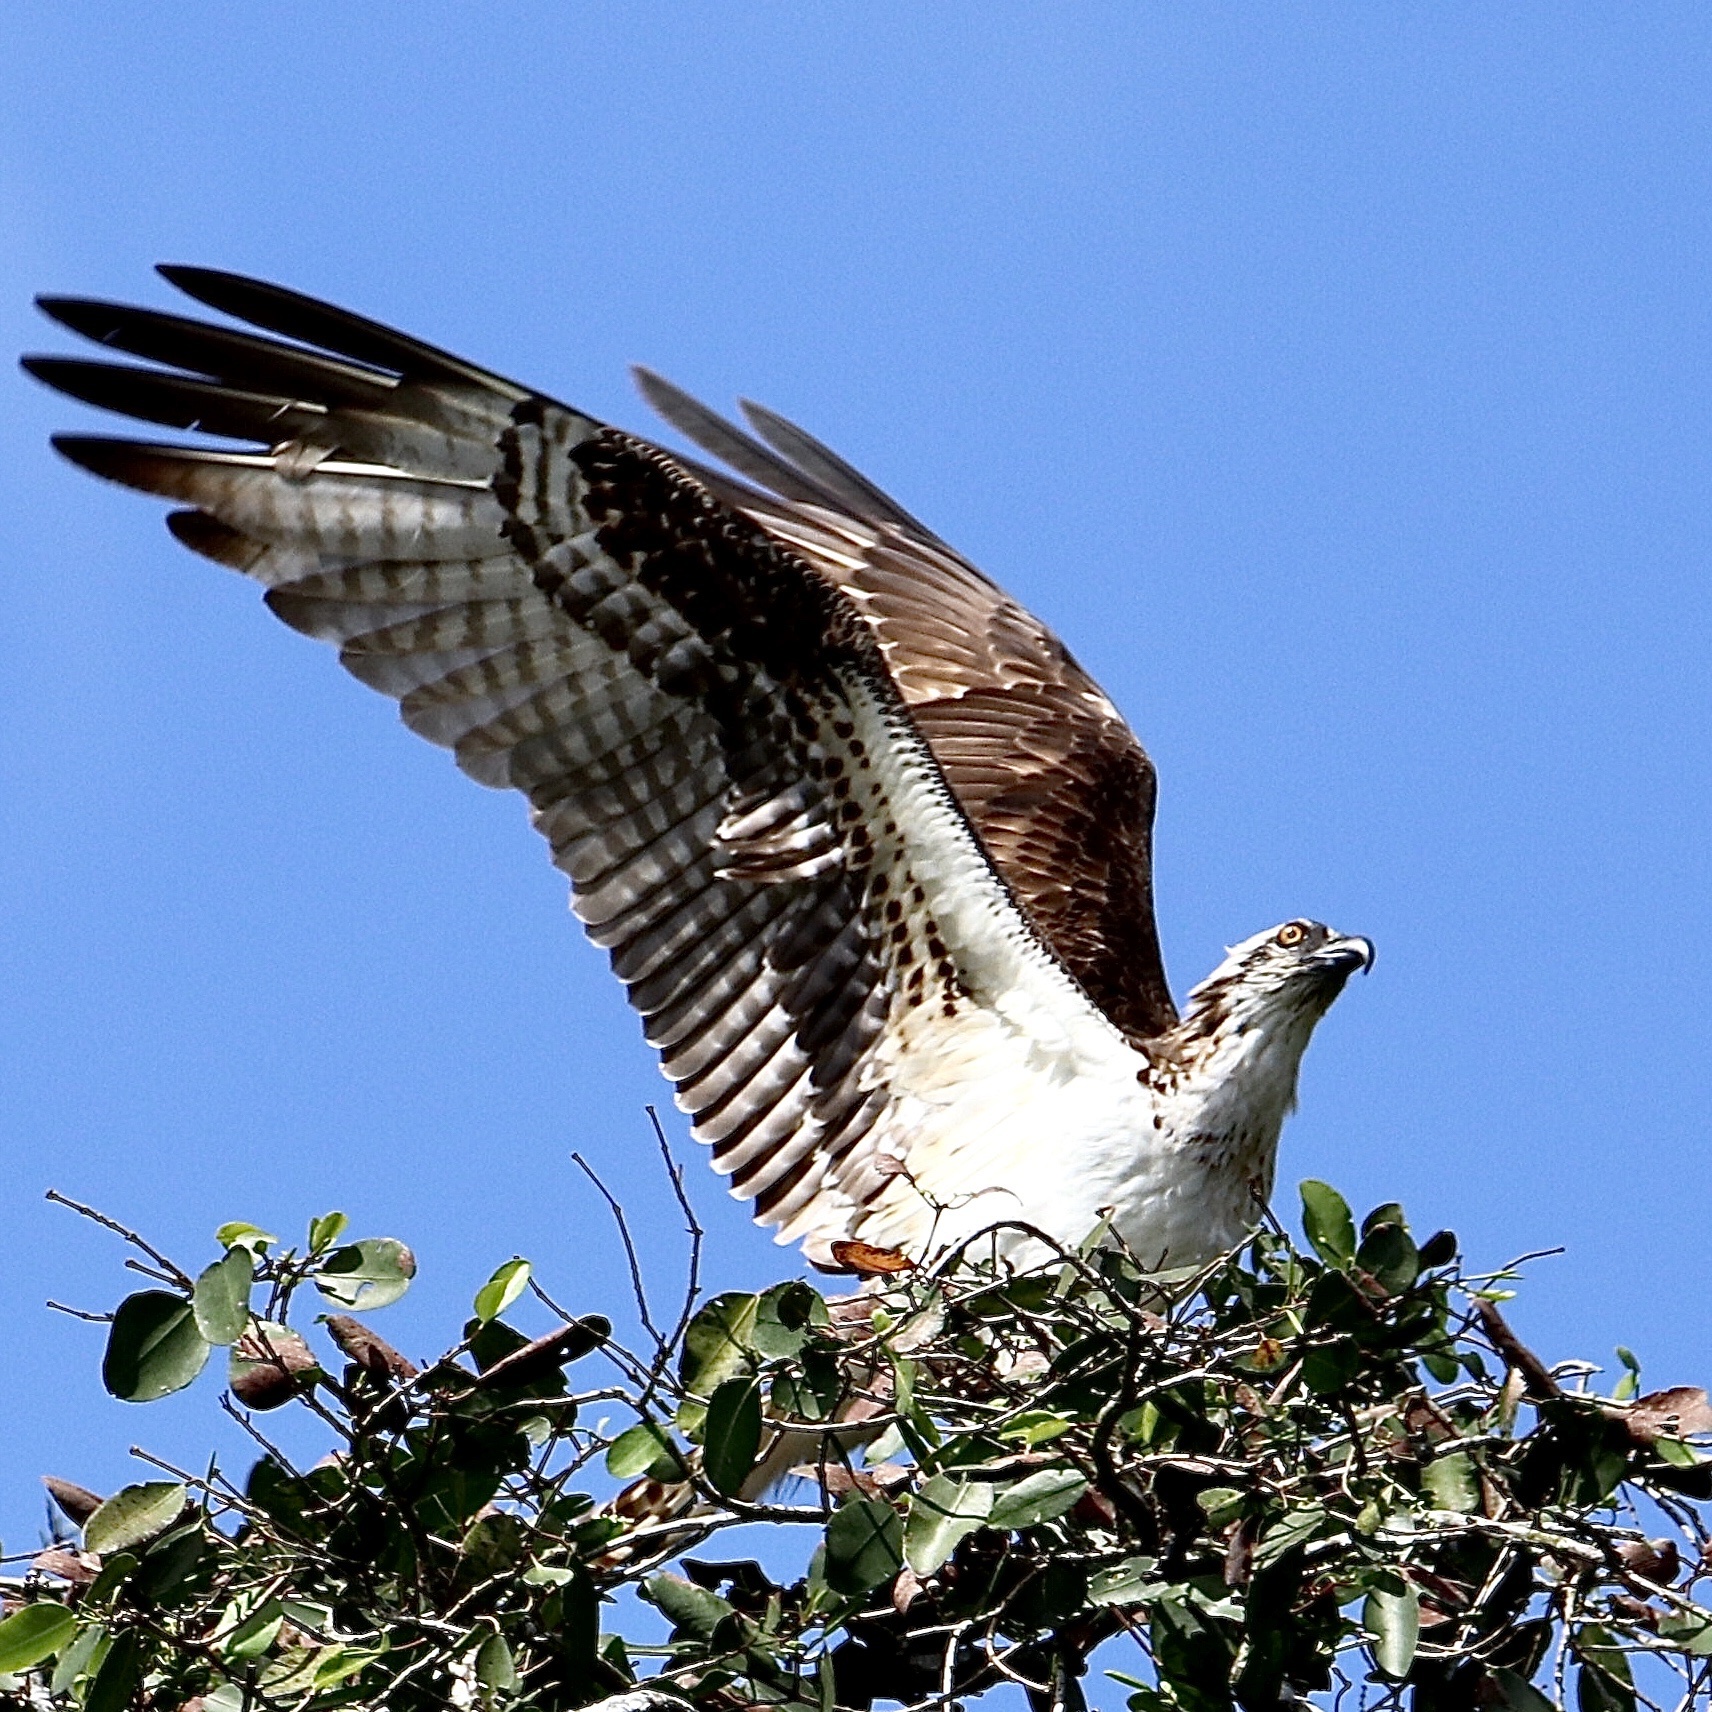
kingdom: Animalia
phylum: Chordata
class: Aves
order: Accipitriformes
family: Pandionidae
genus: Pandion
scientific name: Pandion haliaetus
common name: Osprey
